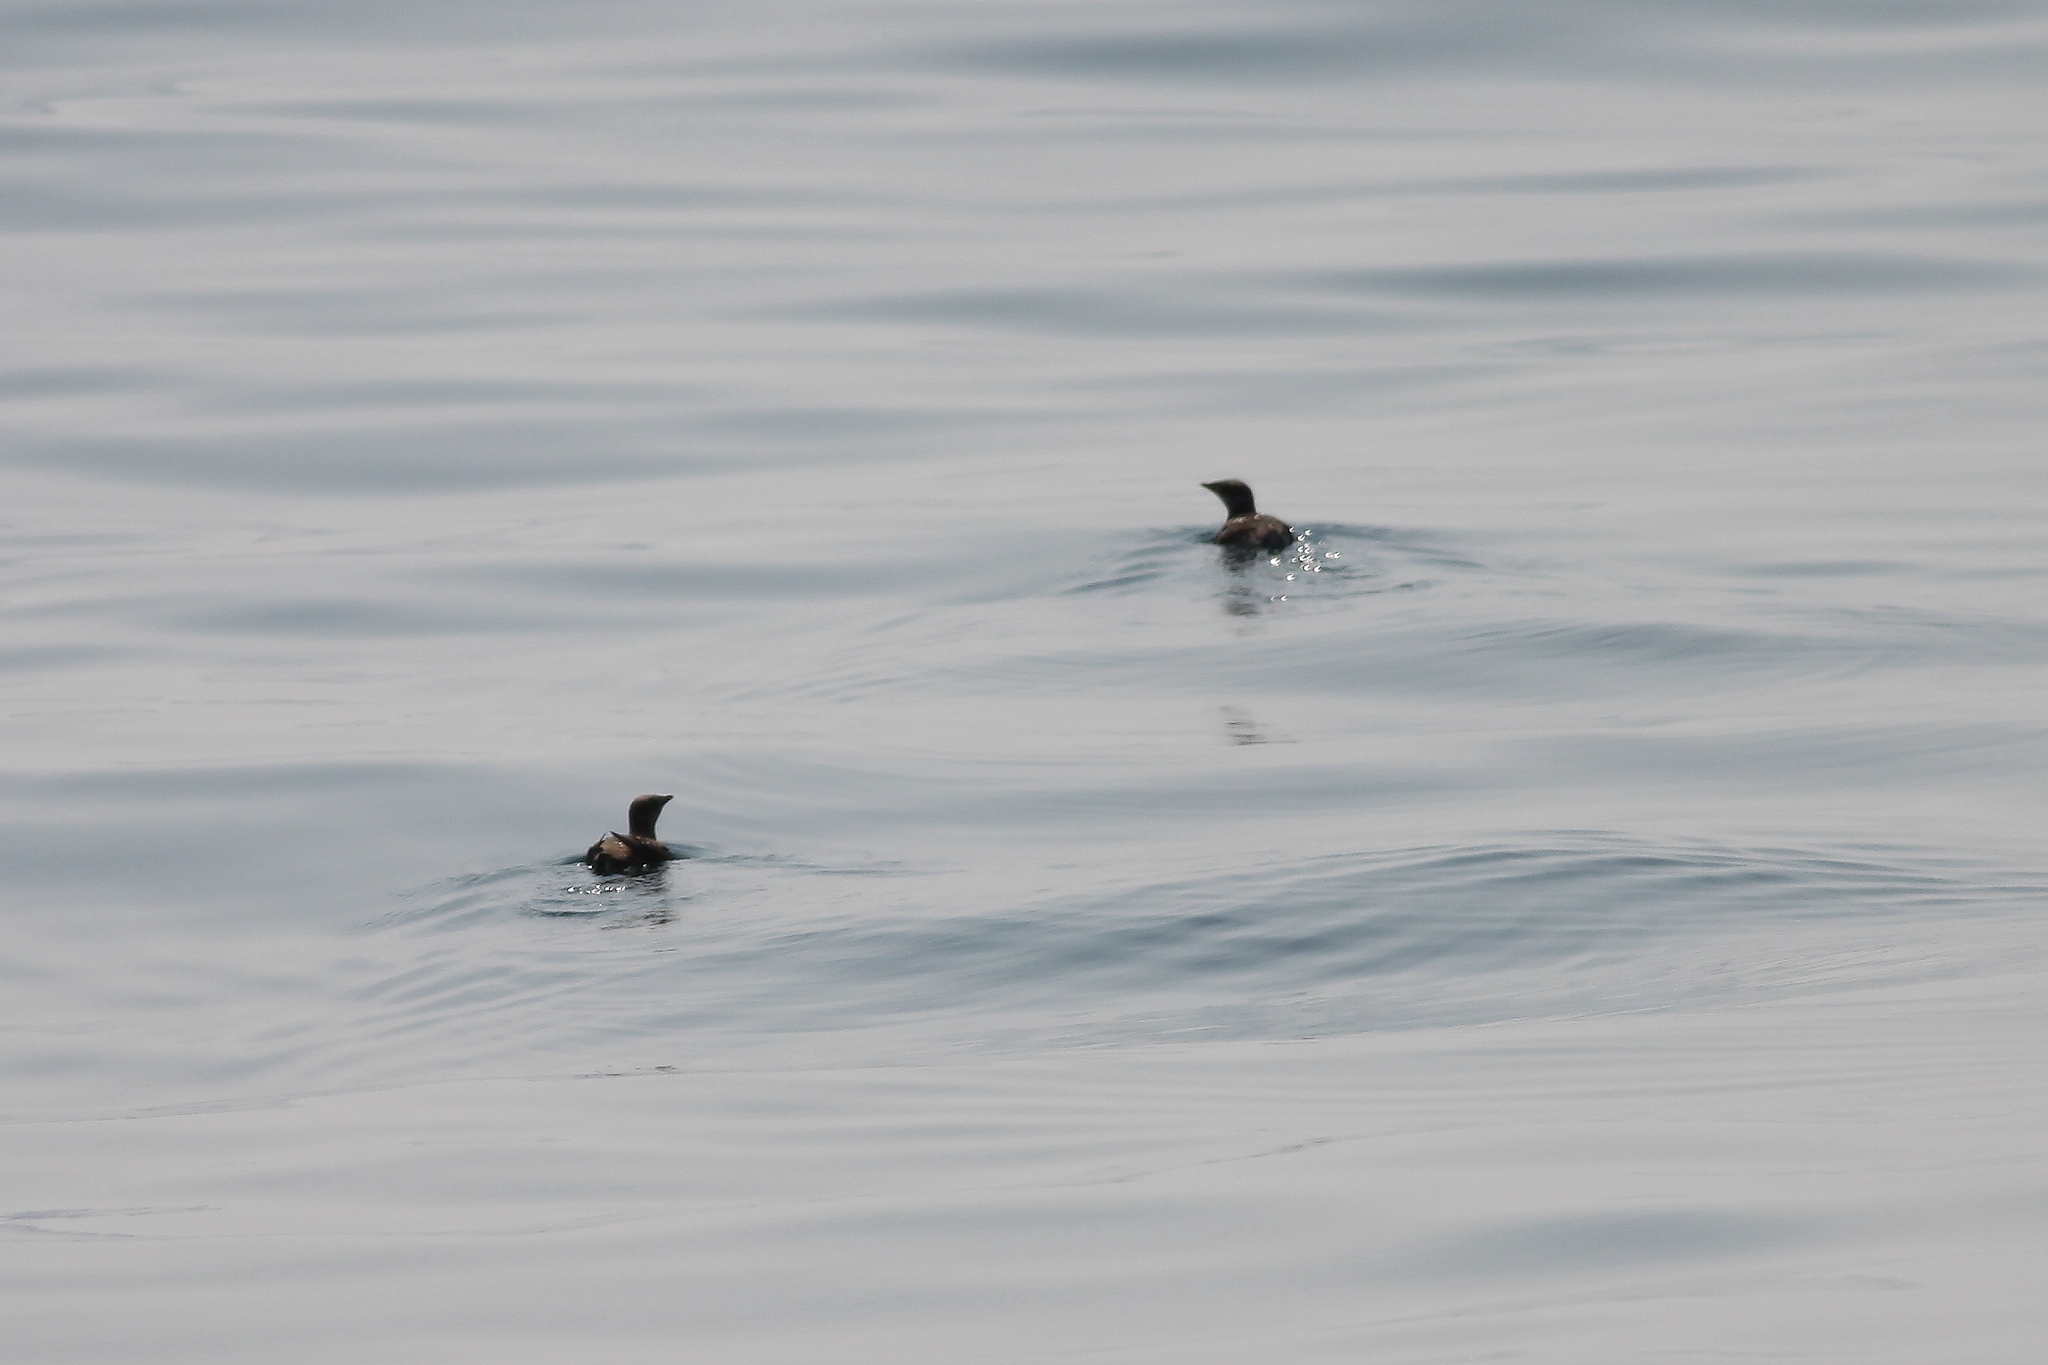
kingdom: Animalia
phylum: Chordata
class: Aves
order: Charadriiformes
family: Alcidae
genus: Brachyramphus
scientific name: Brachyramphus marmoratus
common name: Marbled murrelet
